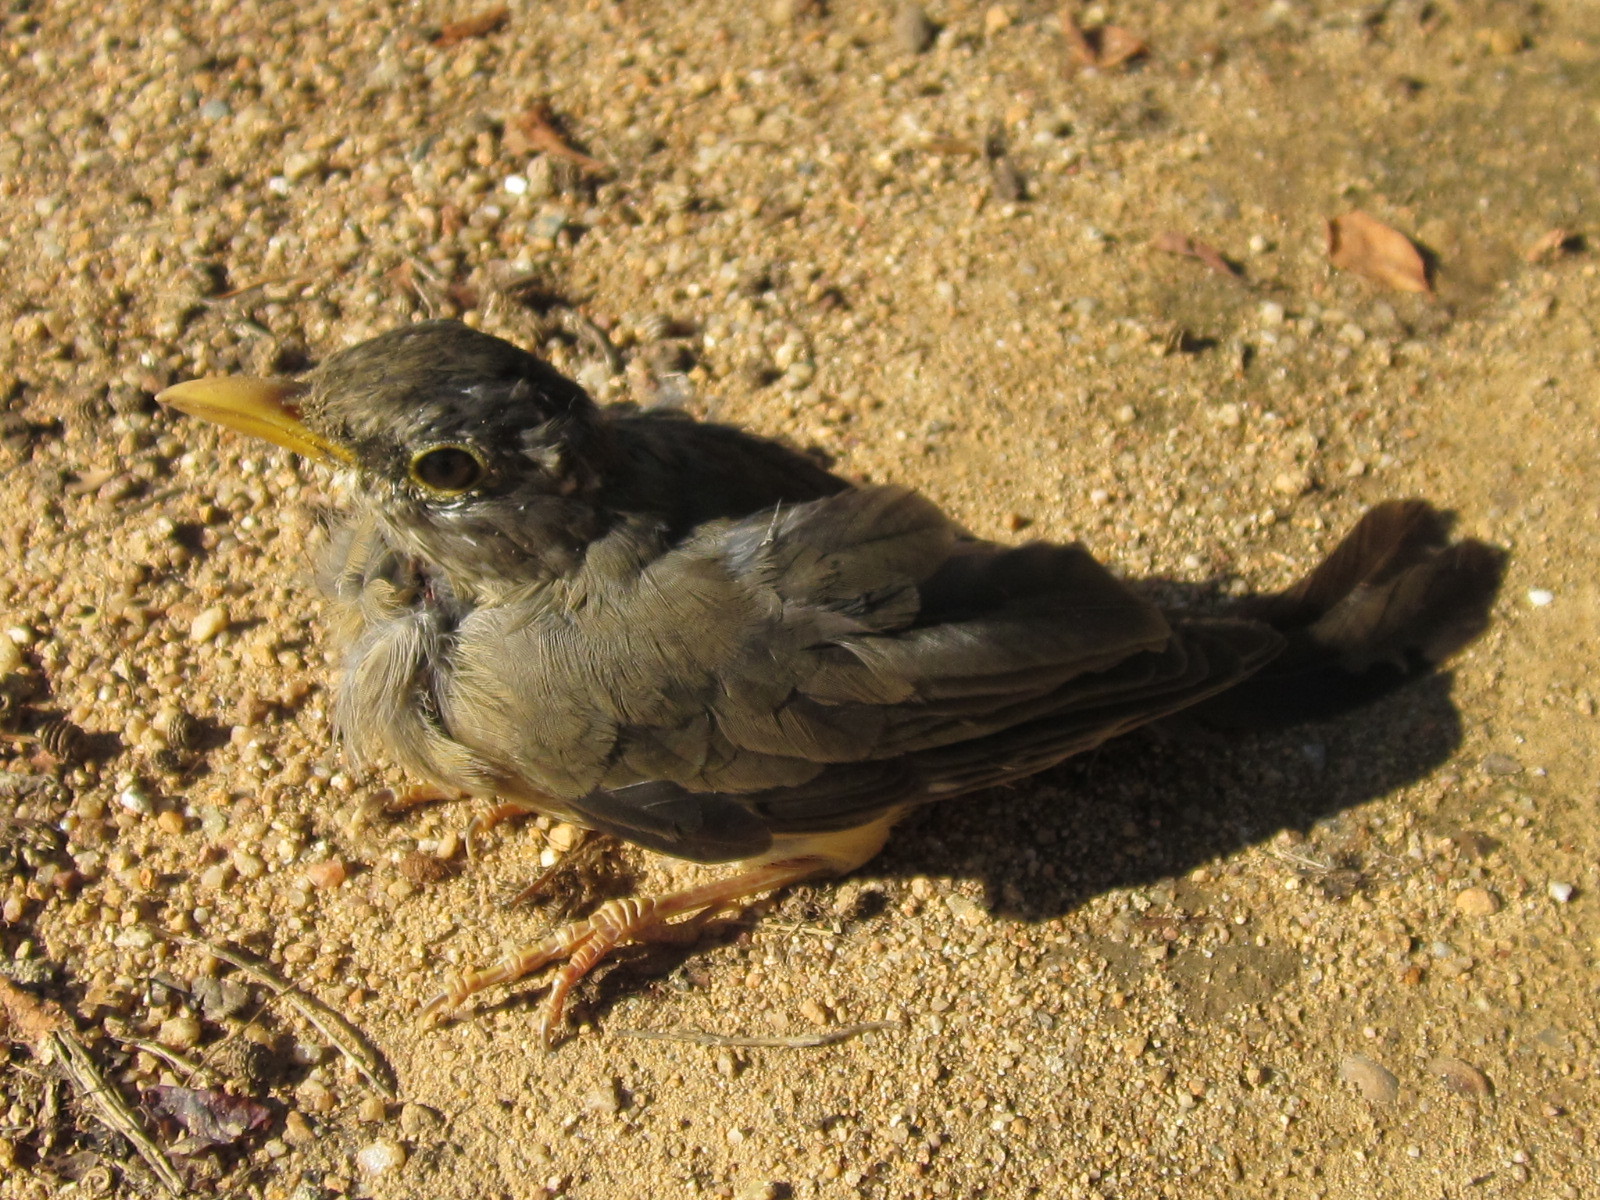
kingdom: Animalia
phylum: Chordata
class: Aves
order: Passeriformes
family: Turdidae
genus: Turdus
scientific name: Turdus falcklandii
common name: Austral thrush
